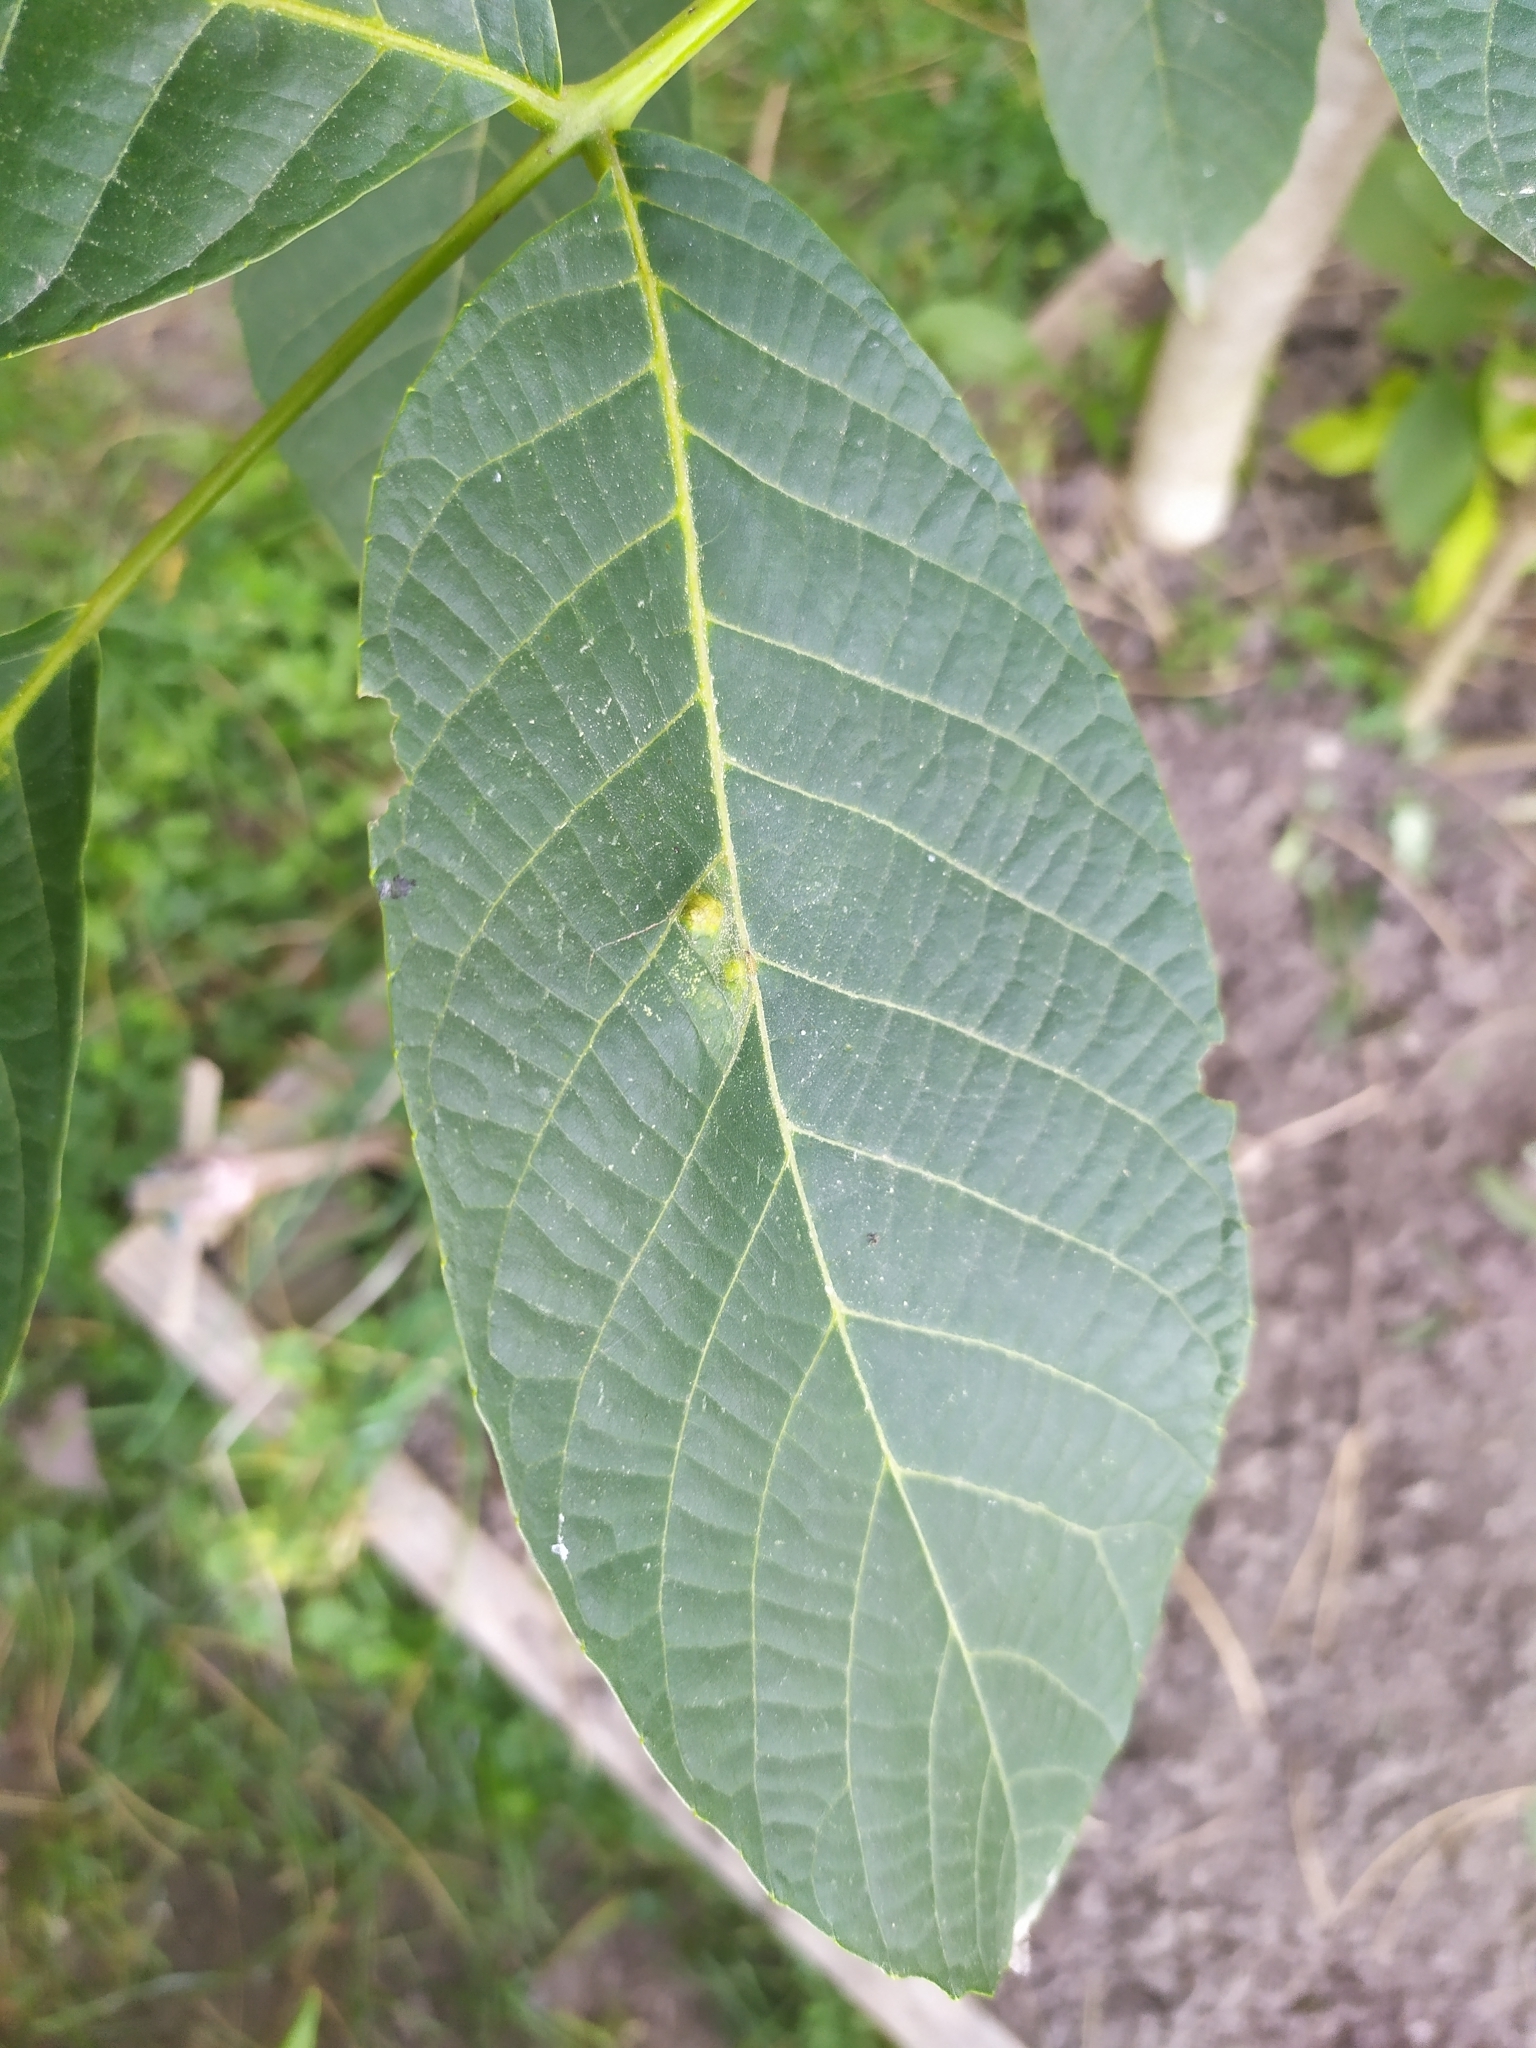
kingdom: Animalia
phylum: Arthropoda
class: Arachnida
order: Trombidiformes
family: Eriophyidae
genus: Aceria
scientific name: Aceria erinea
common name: Persian walnut erineum mite
